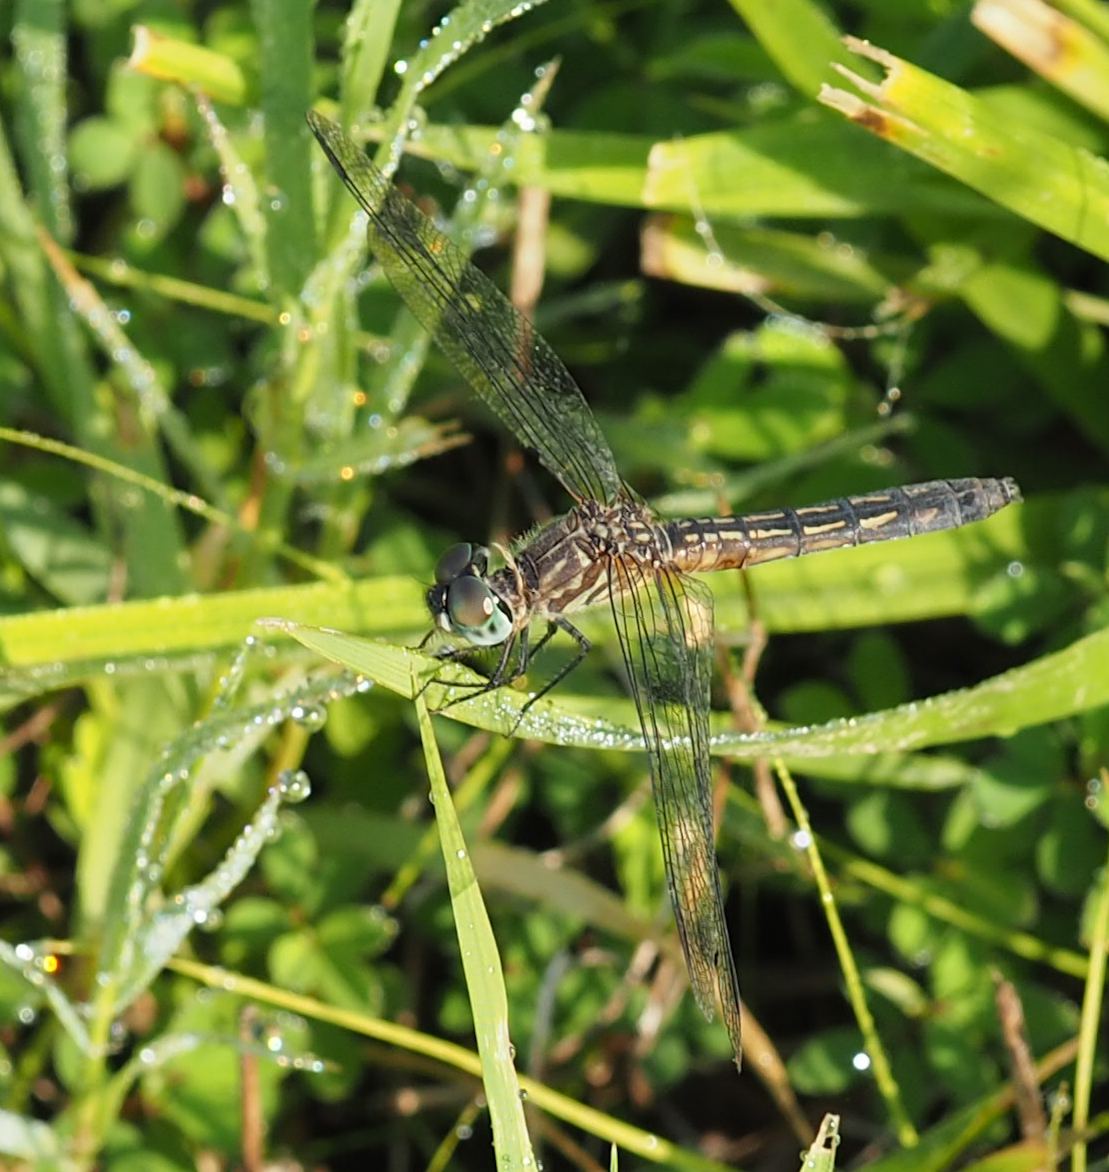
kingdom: Animalia
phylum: Arthropoda
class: Insecta
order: Odonata
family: Libellulidae
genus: Pachydiplax
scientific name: Pachydiplax longipennis
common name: Blue dasher
